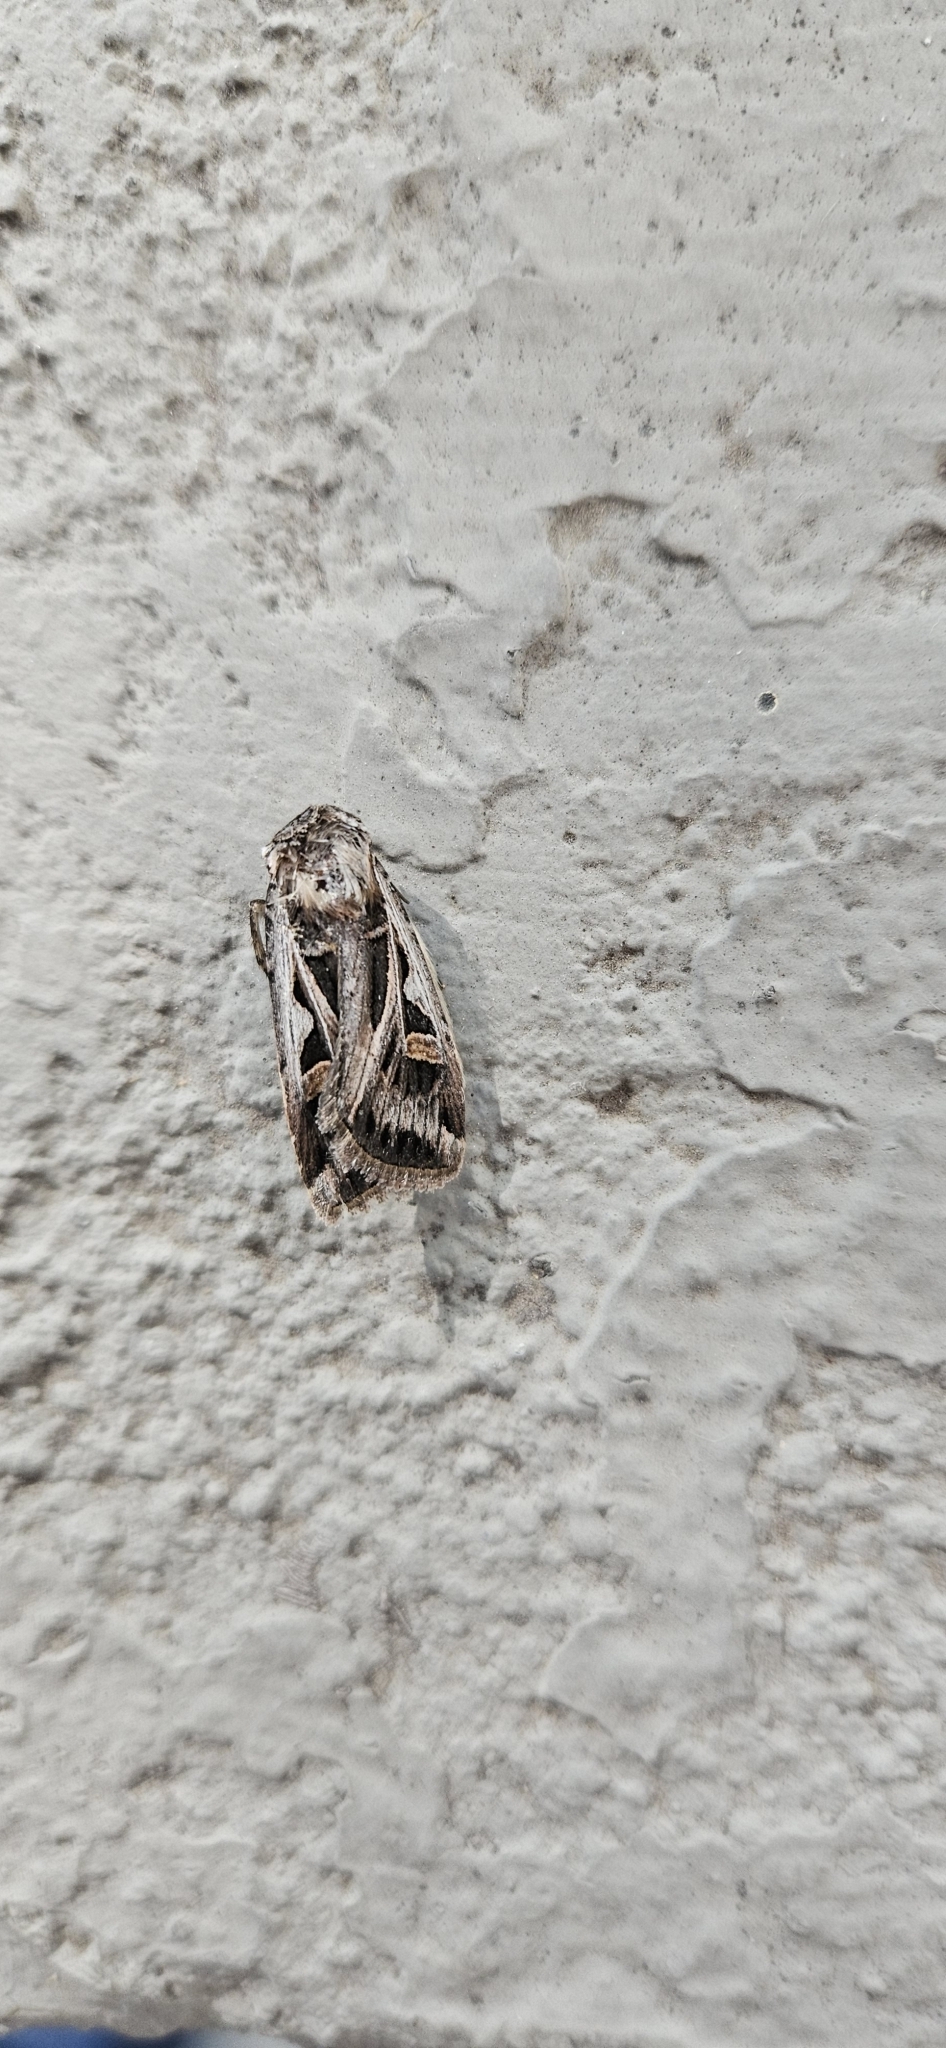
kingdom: Animalia
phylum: Arthropoda
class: Insecta
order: Lepidoptera
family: Noctuidae
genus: Euxoa
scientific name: Euxoa auxiliaris
